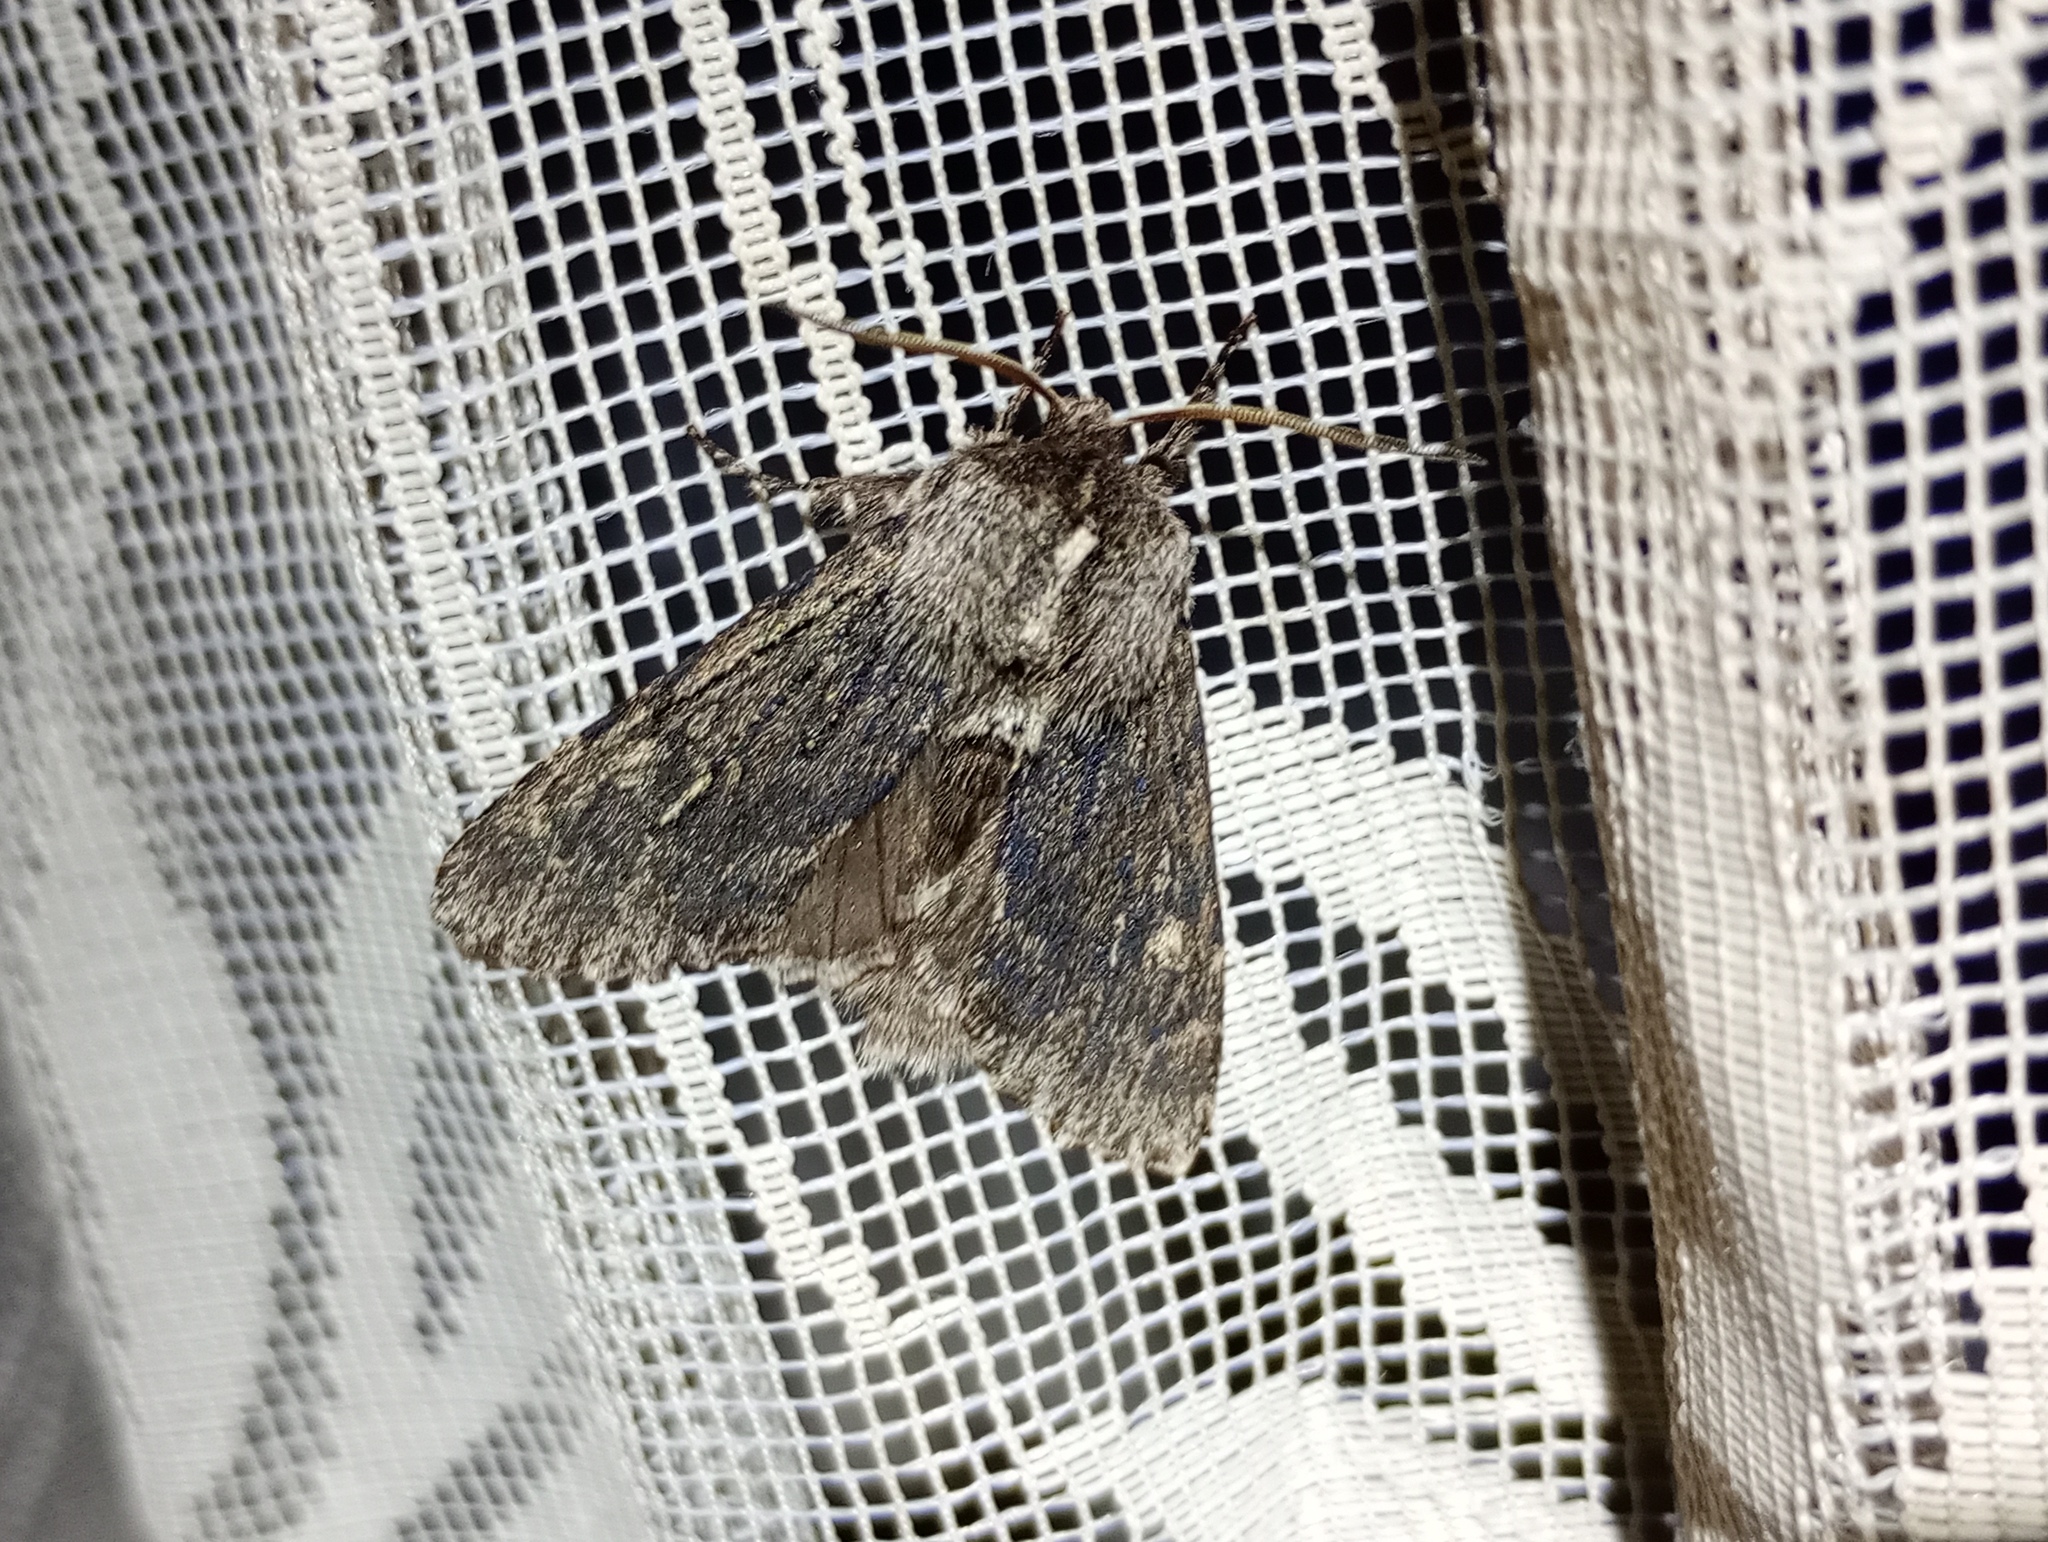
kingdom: Animalia
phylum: Arthropoda
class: Insecta
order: Lepidoptera
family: Noctuidae
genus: Brachionycha
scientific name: Brachionycha nubeculosa
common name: Rannoch sprawler
